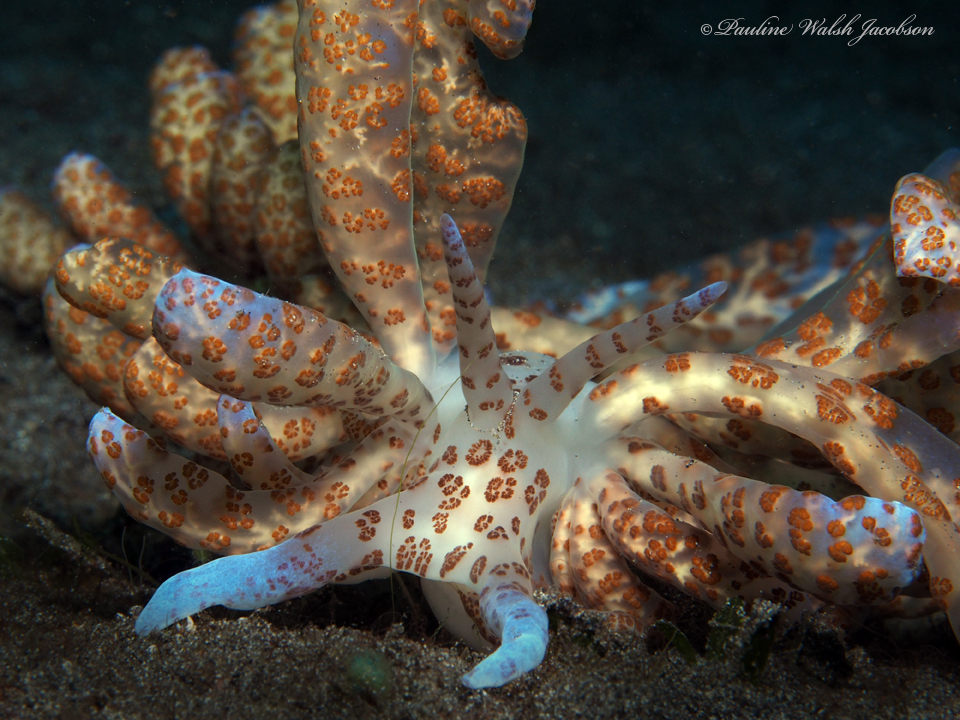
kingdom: Animalia
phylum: Mollusca
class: Gastropoda
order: Nudibranchia
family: Myrrhinidae
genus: Phyllodesmium
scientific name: Phyllodesmium longicirrum
